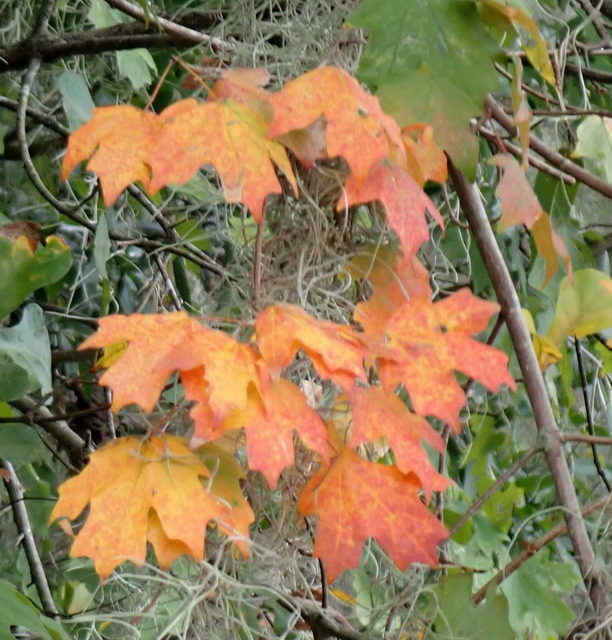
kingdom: Plantae
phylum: Tracheophyta
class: Magnoliopsida
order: Sapindales
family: Sapindaceae
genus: Acer
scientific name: Acer floridanum
